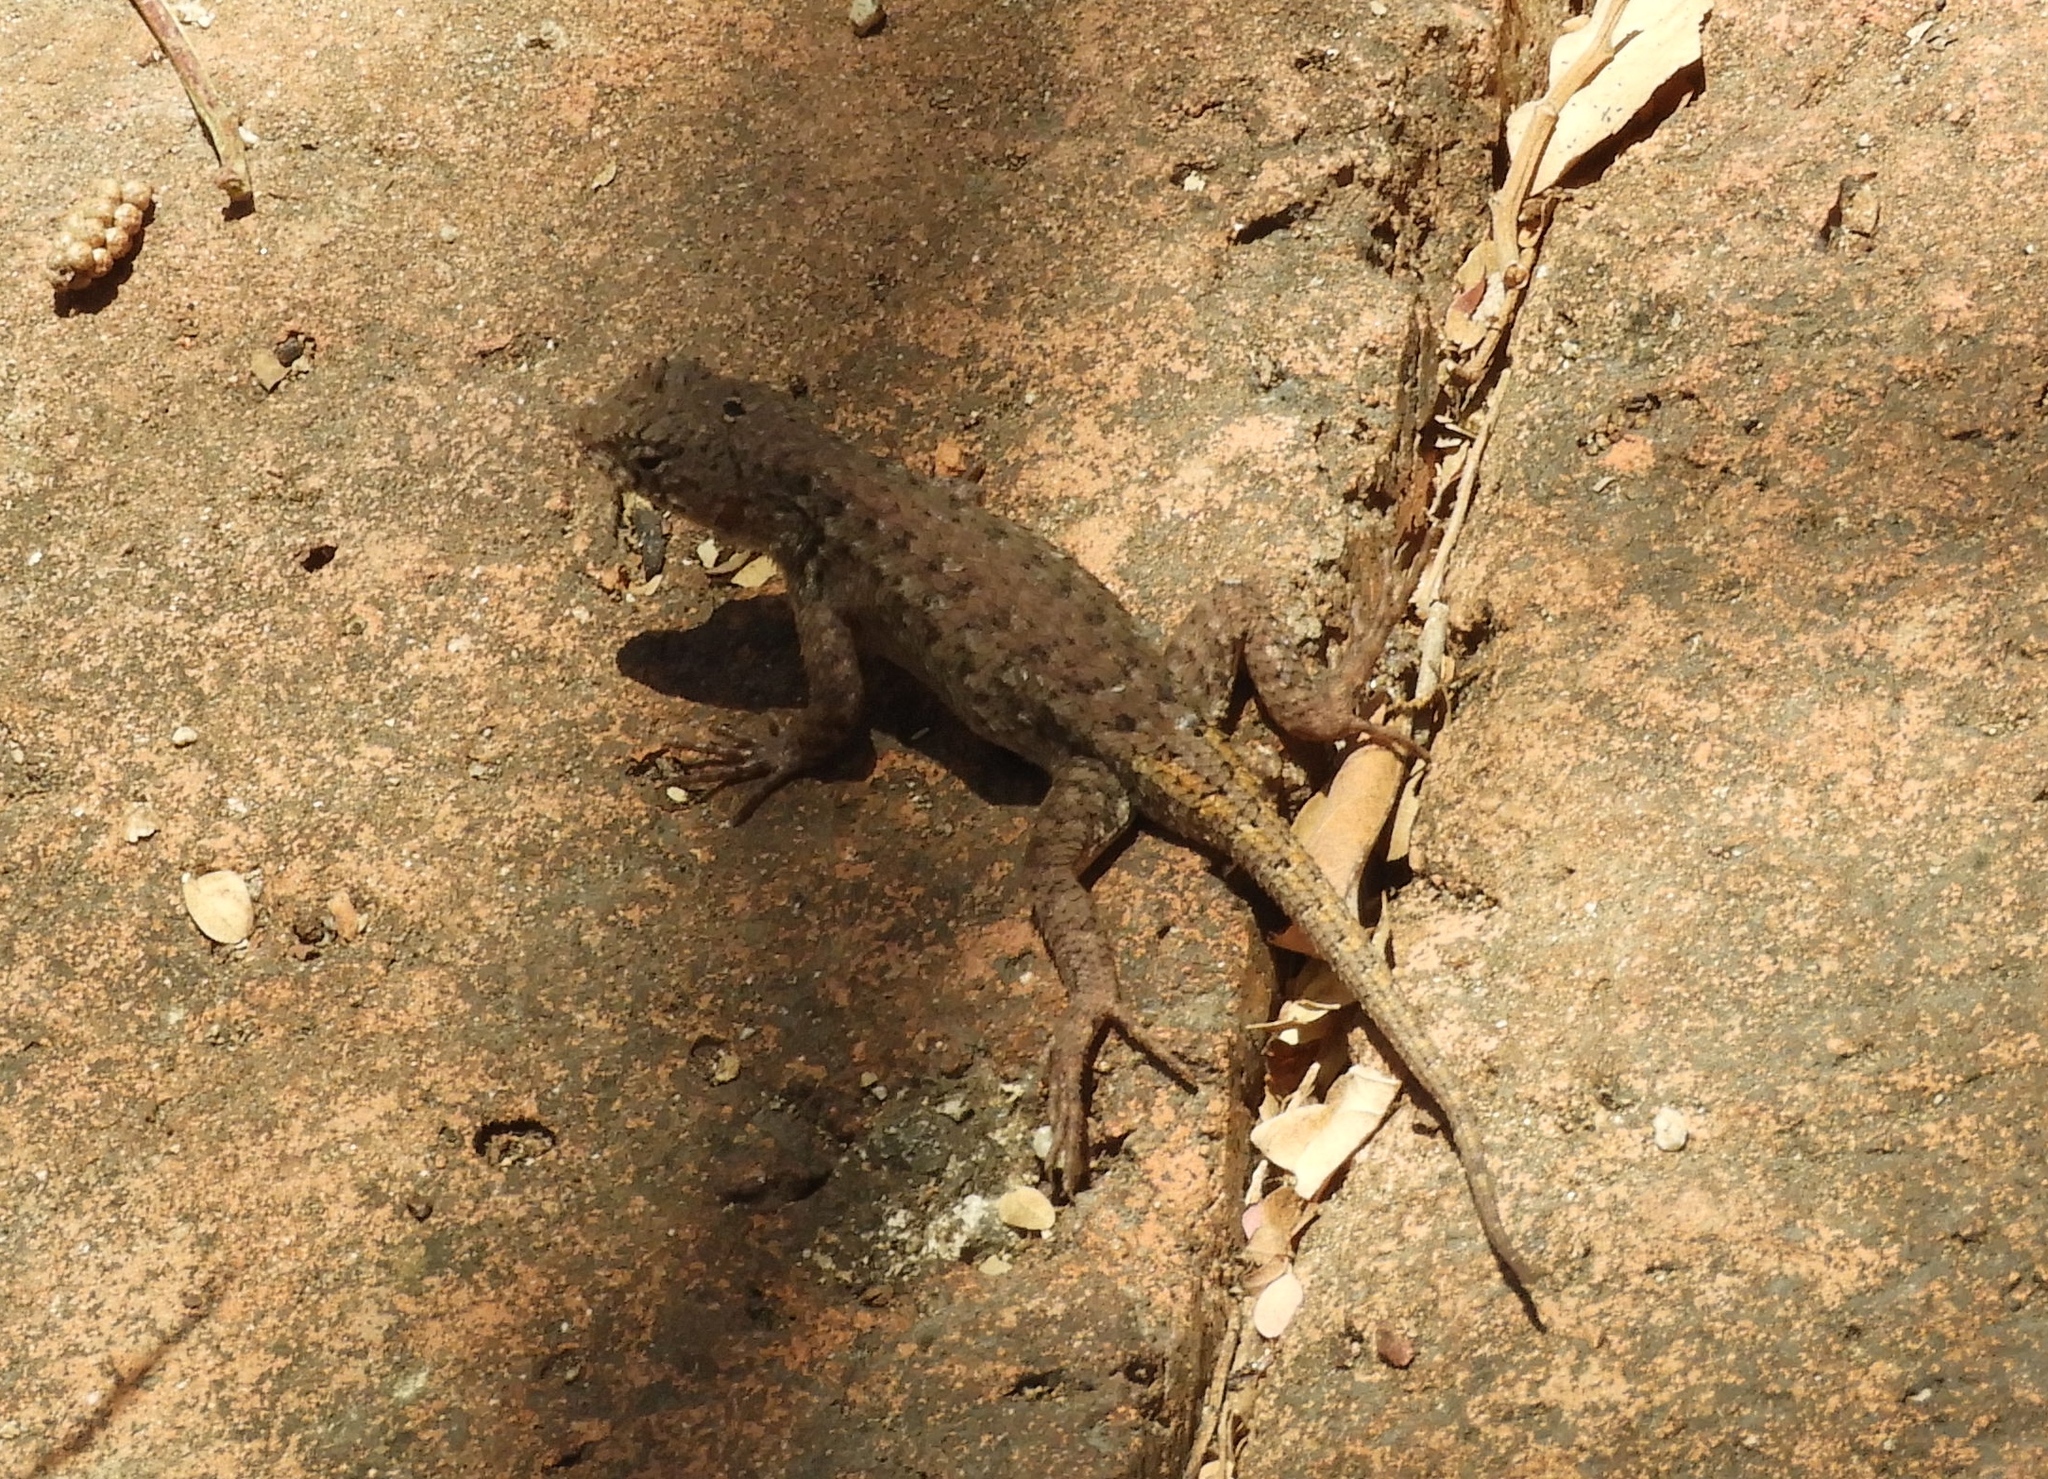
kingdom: Animalia
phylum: Chordata
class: Squamata
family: Phrynosomatidae
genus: Sceloporus
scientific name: Sceloporus nelsoni
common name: Nelson's spiny lizard
